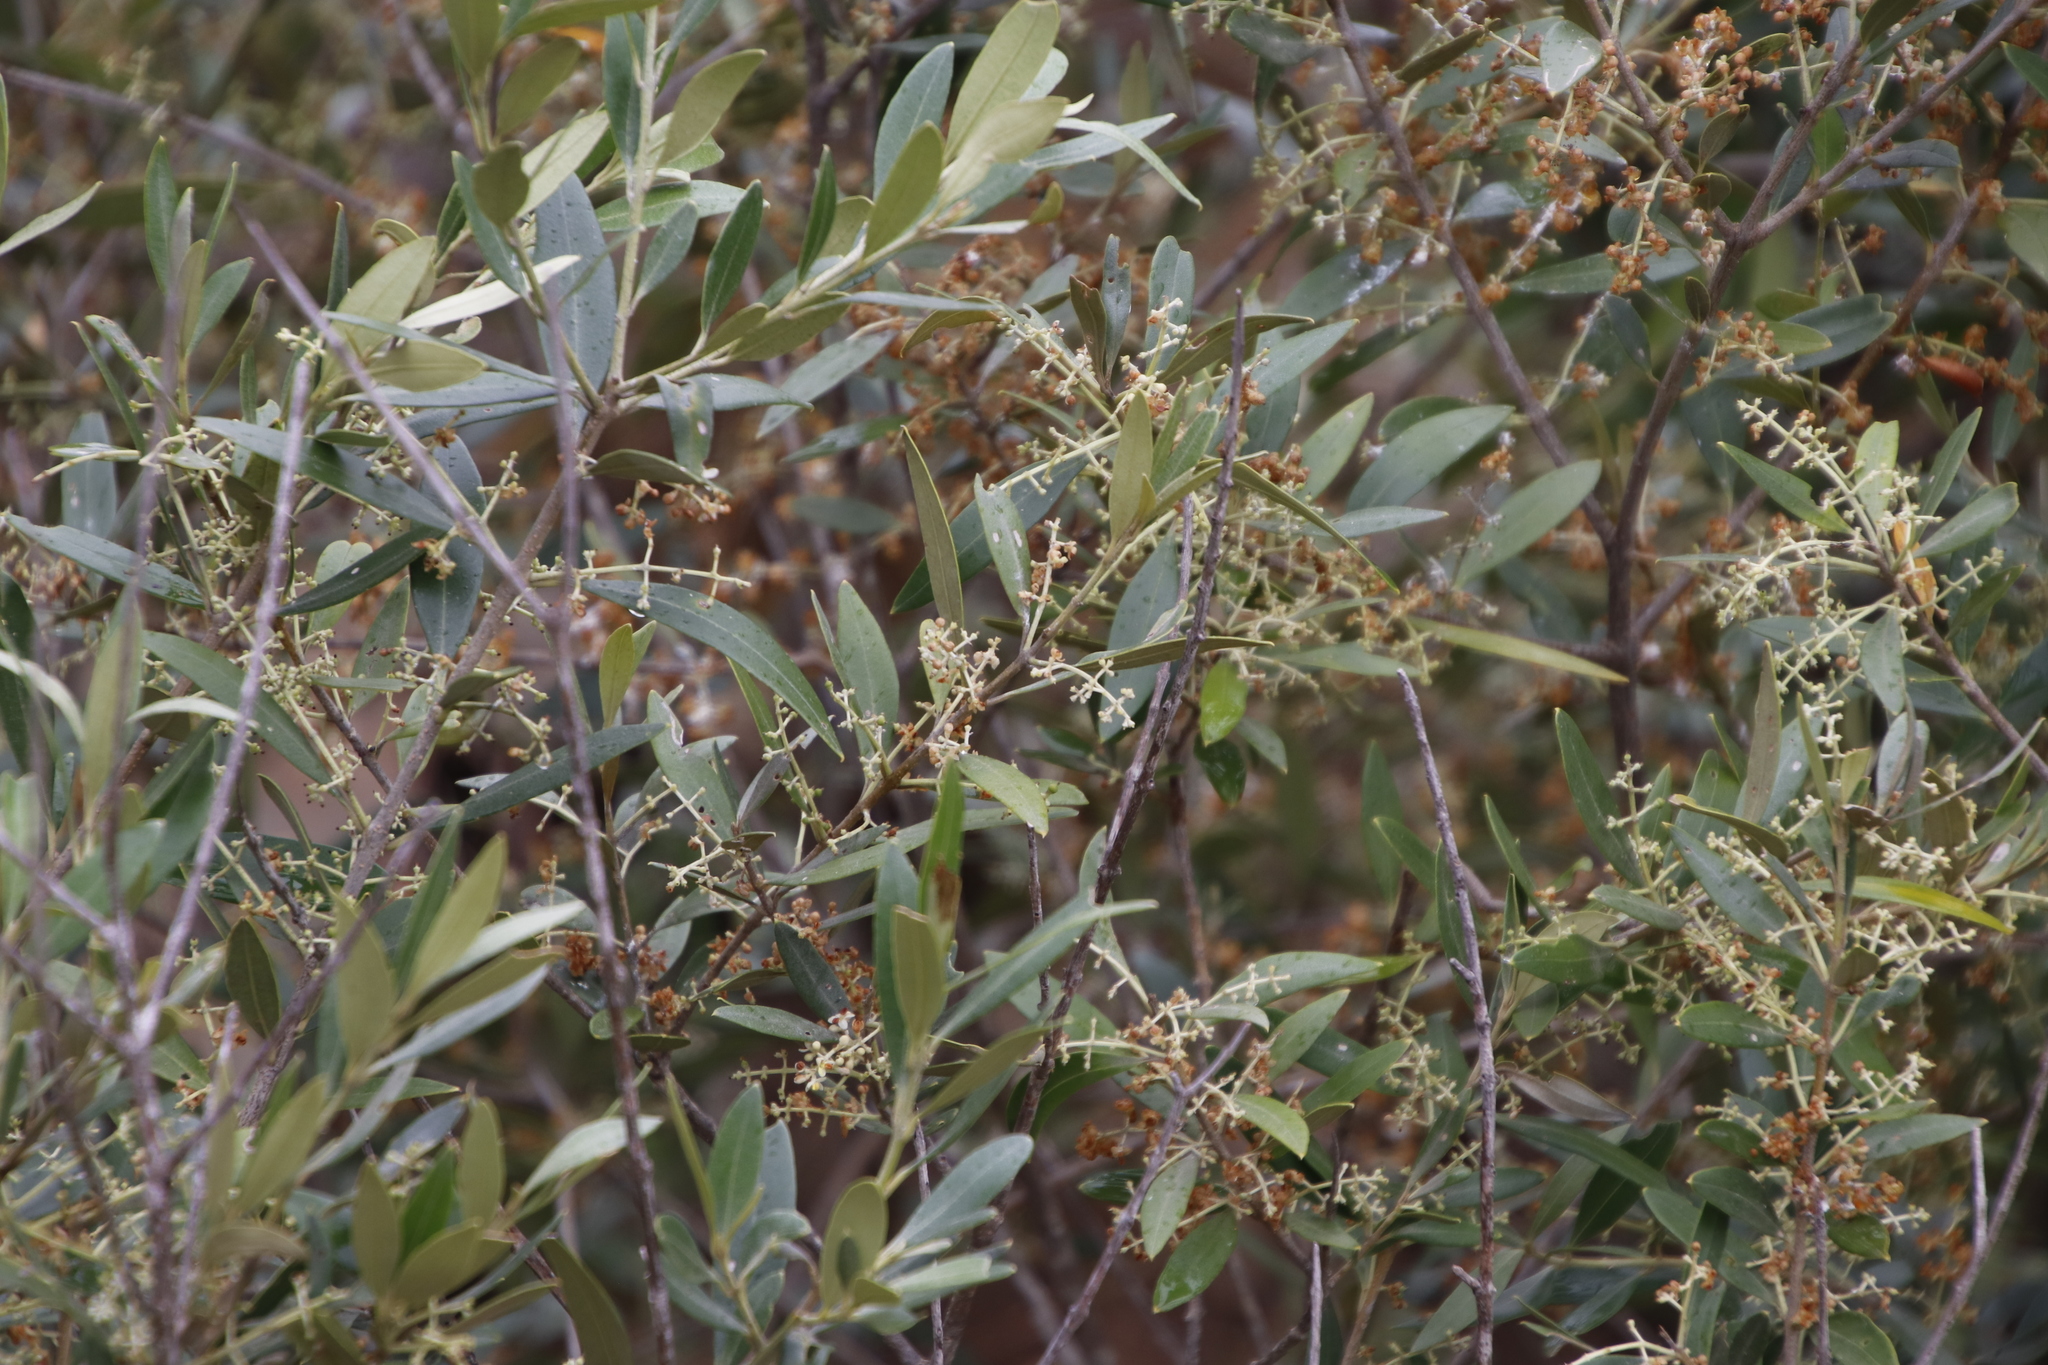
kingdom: Plantae
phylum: Tracheophyta
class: Magnoliopsida
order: Lamiales
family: Oleaceae
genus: Olea
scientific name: Olea europaea
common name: Olive
